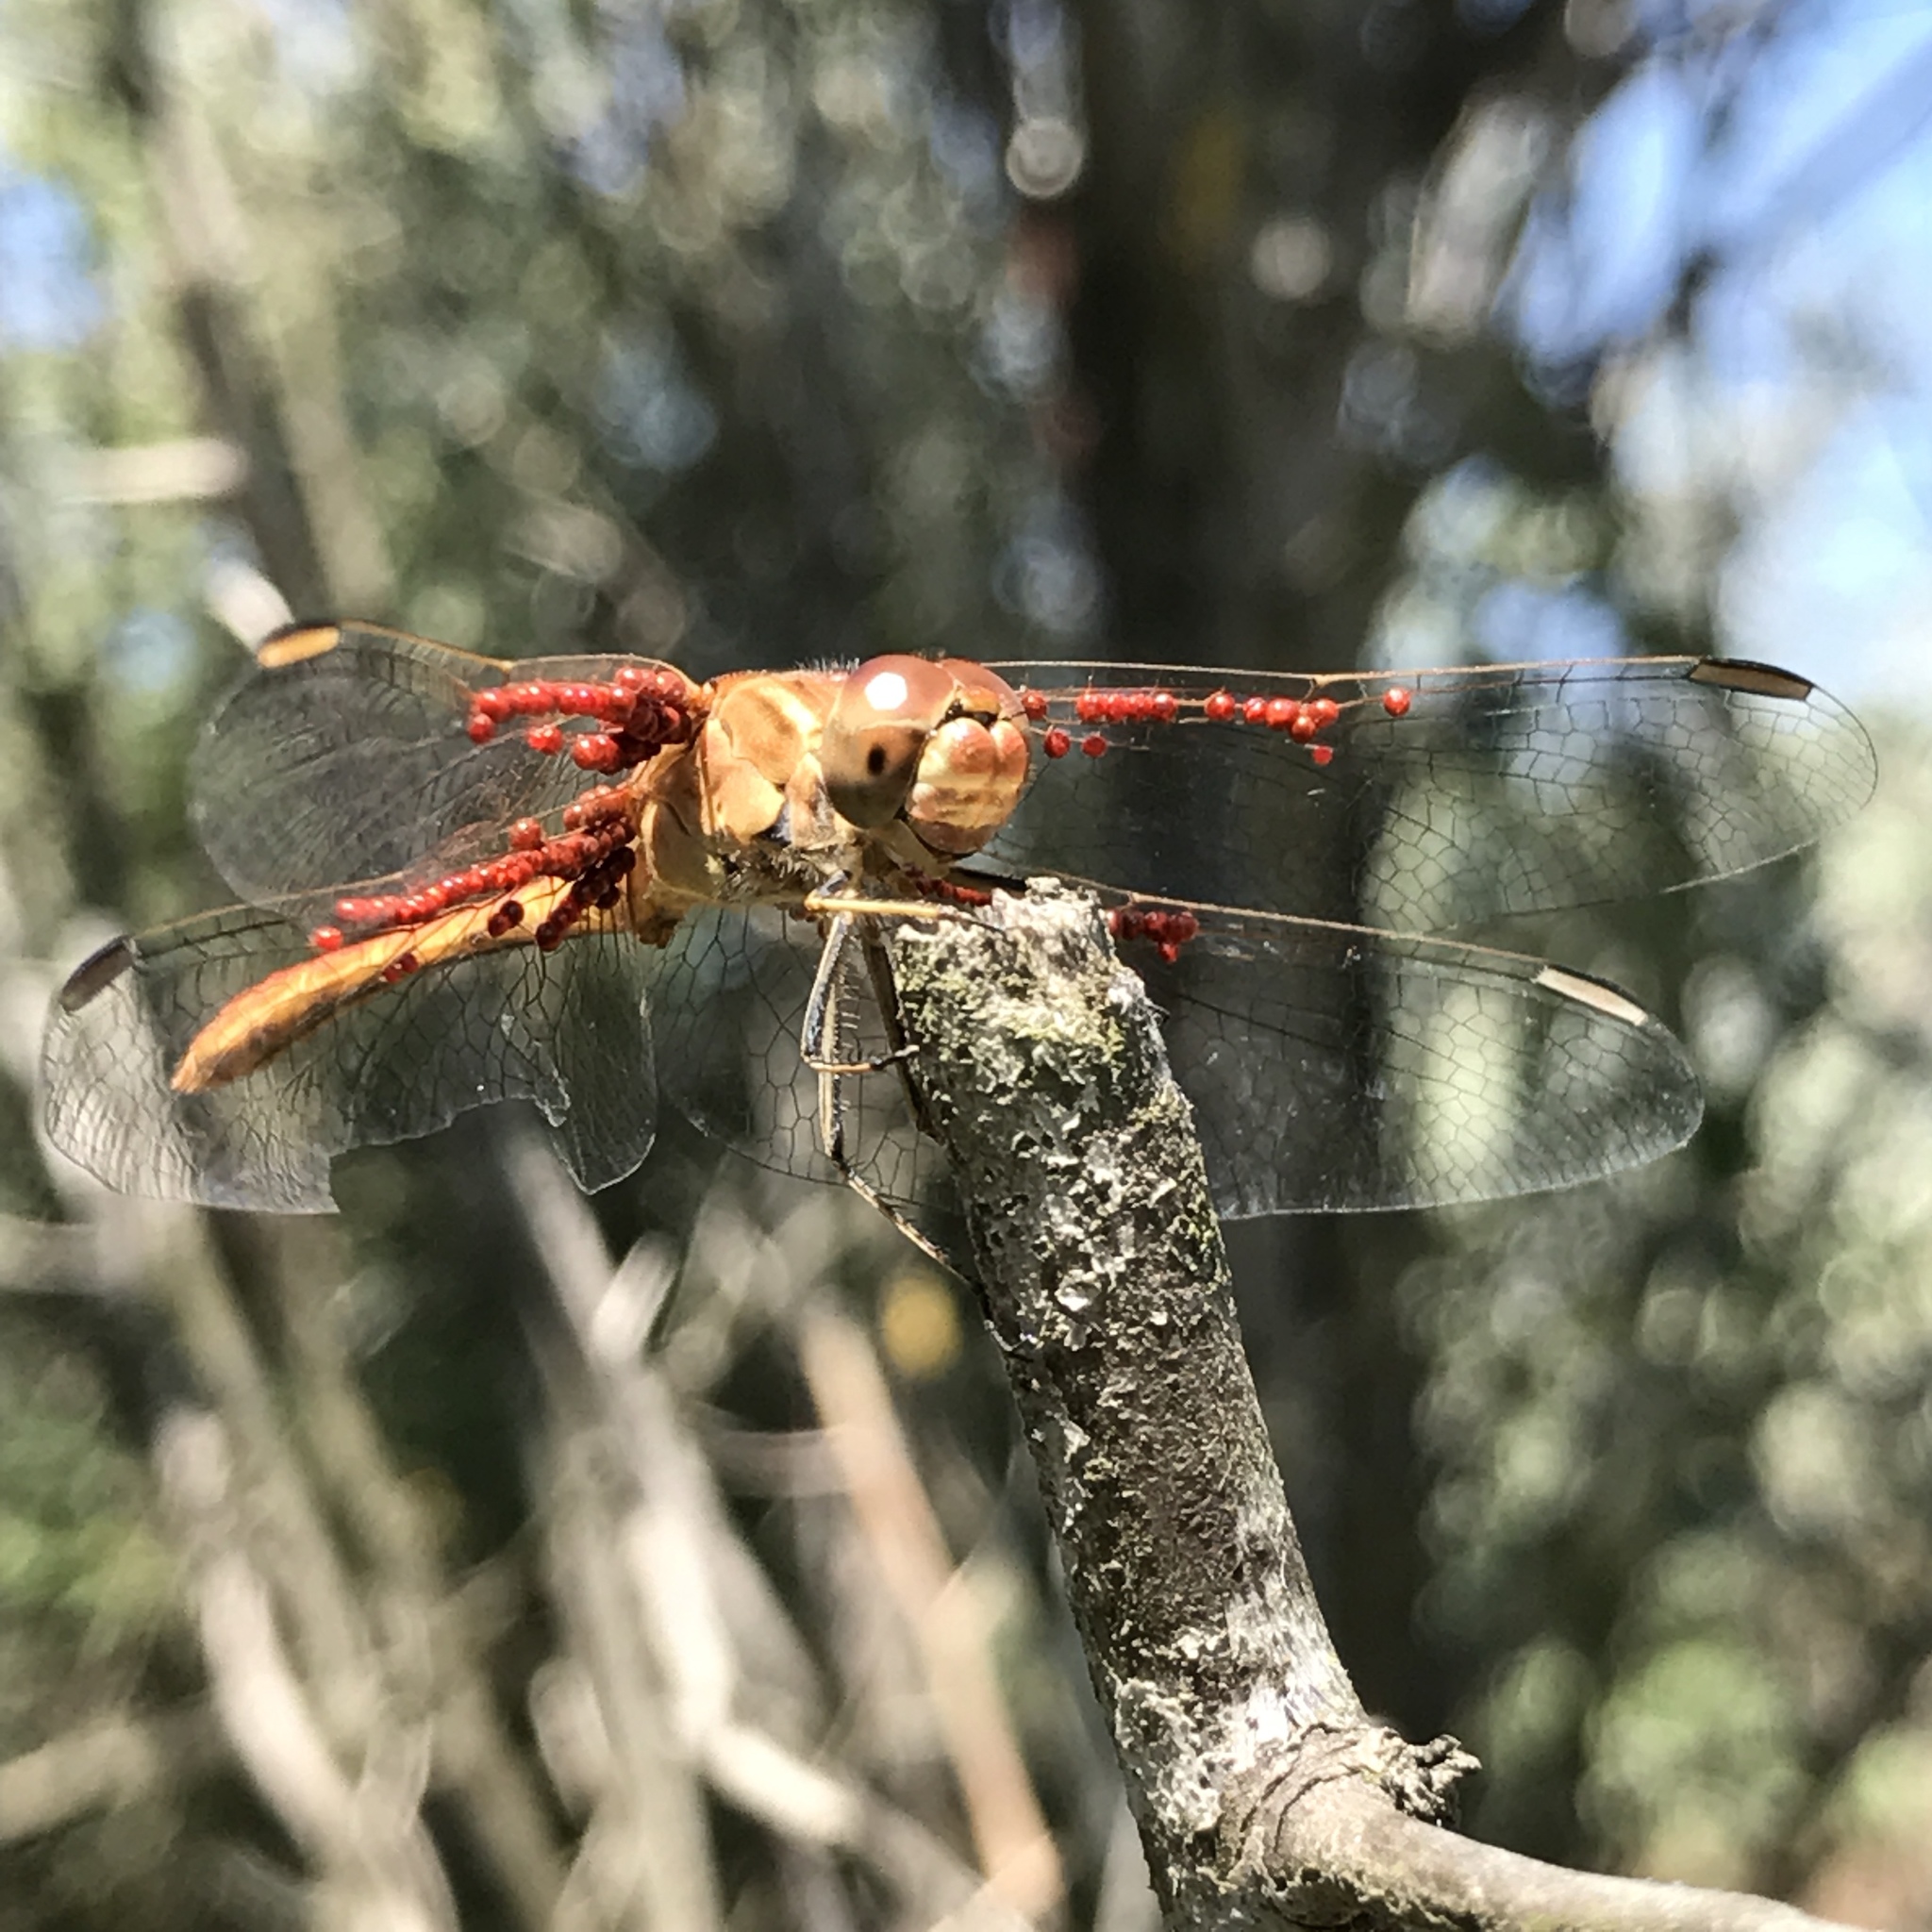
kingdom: Animalia
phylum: Arthropoda
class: Insecta
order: Odonata
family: Libellulidae
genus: Sympetrum
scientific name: Sympetrum meridionale
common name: Southern darter
